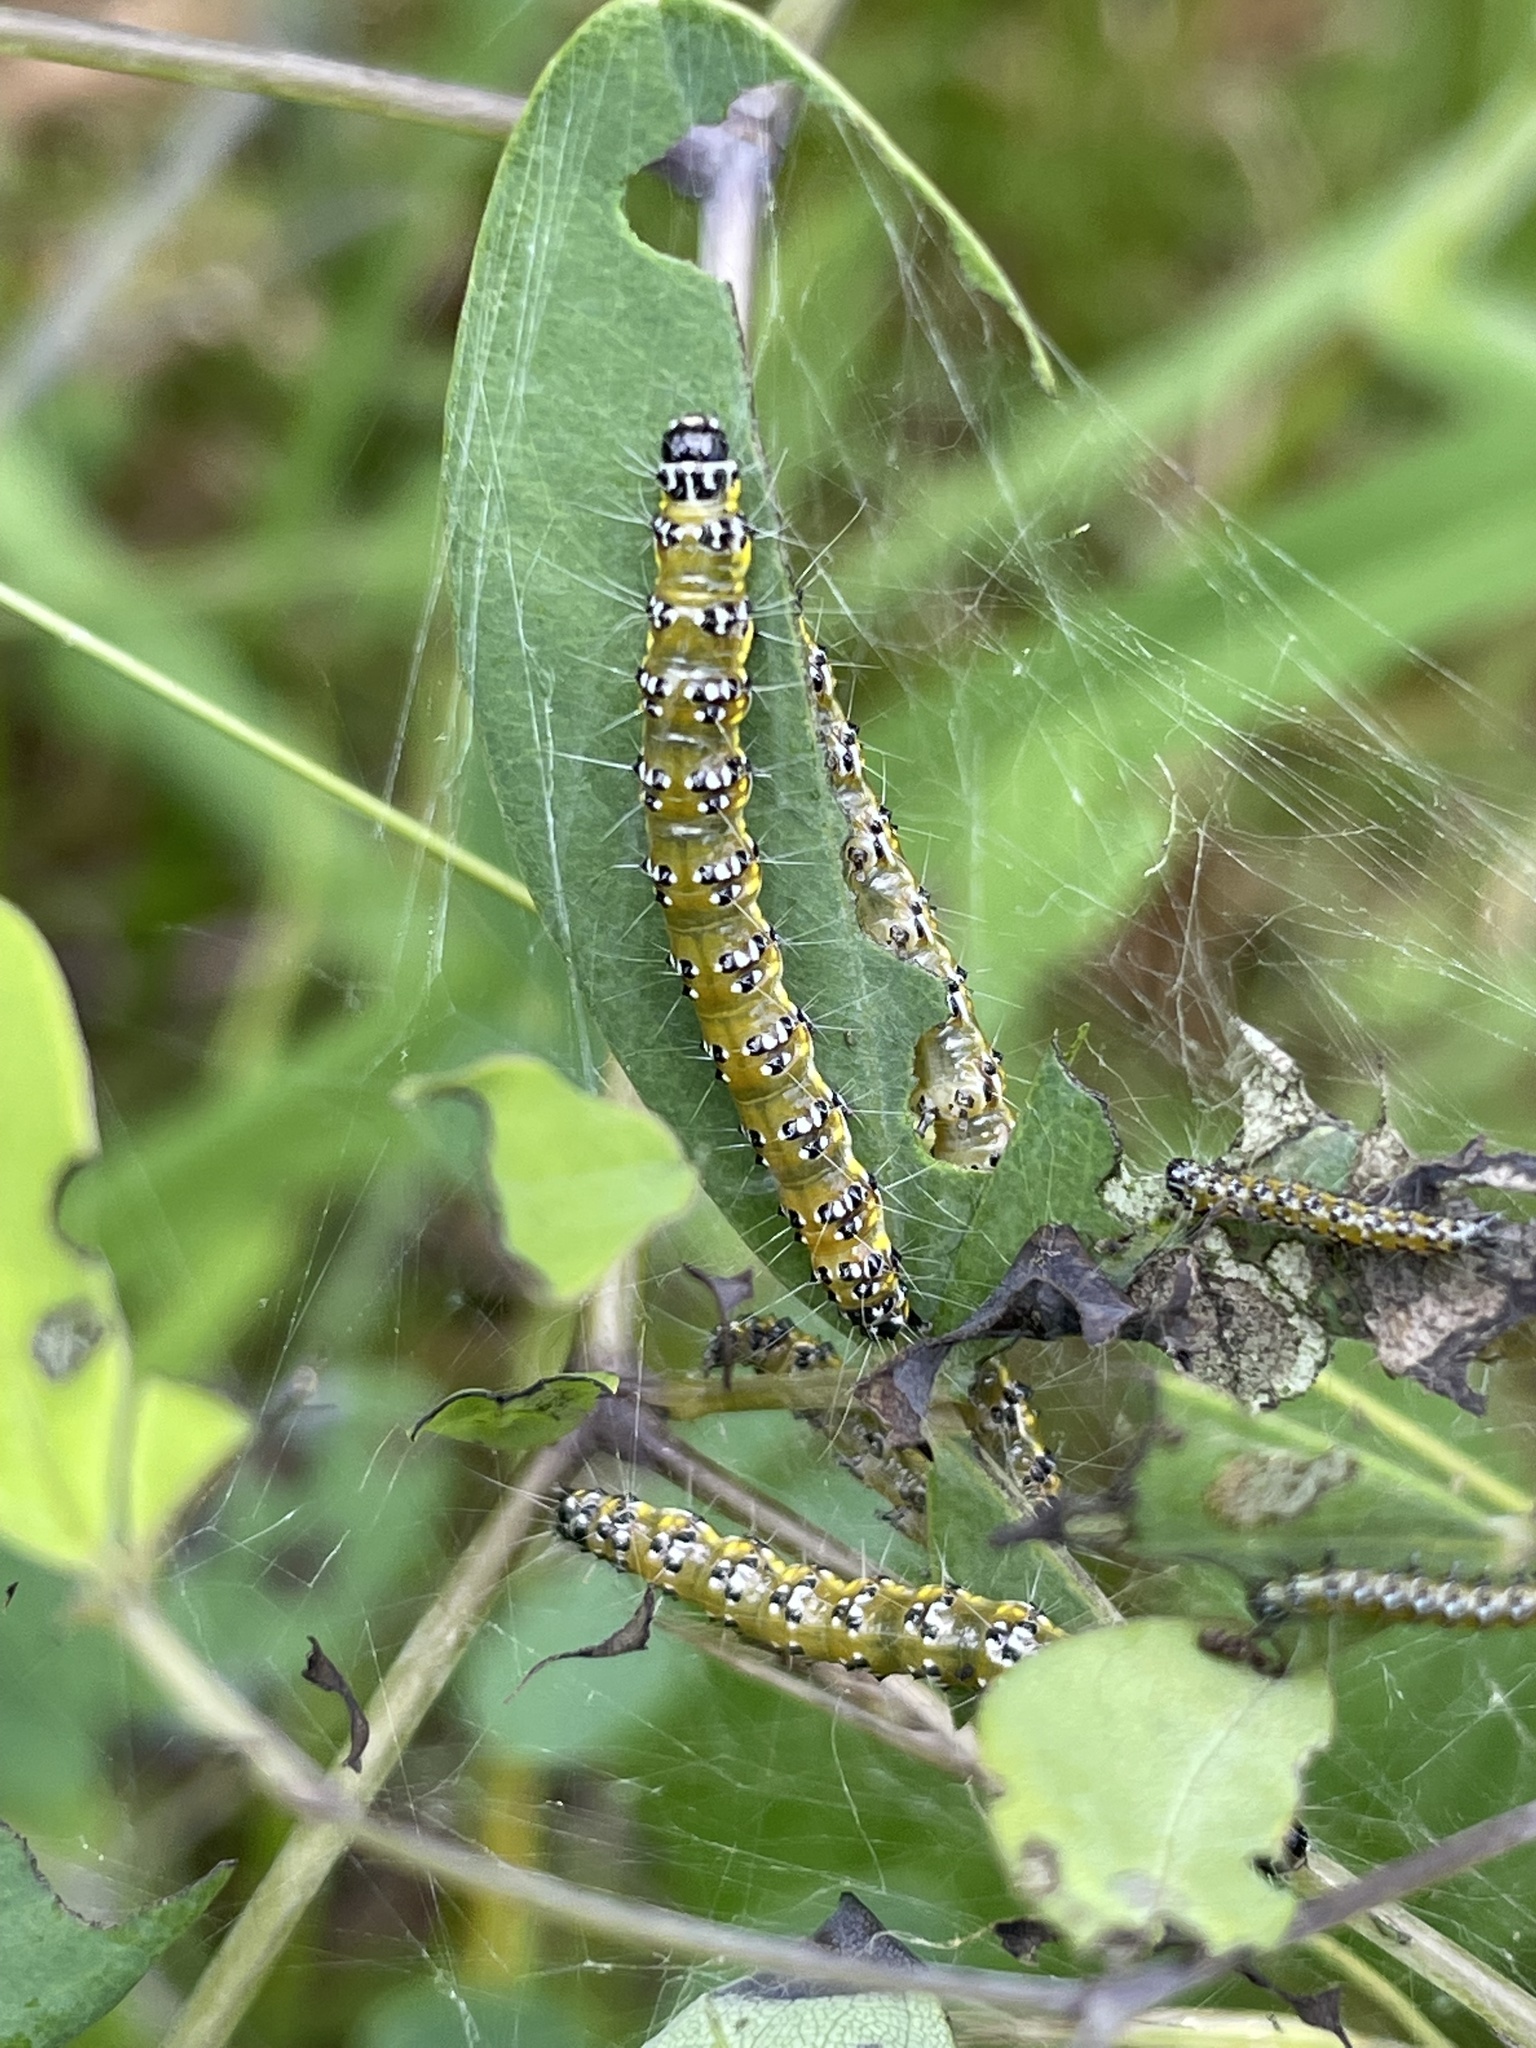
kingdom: Animalia
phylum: Arthropoda
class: Insecta
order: Lepidoptera
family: Crambidae
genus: Uresiphita
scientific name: Uresiphita reversalis
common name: Genista broom moth
